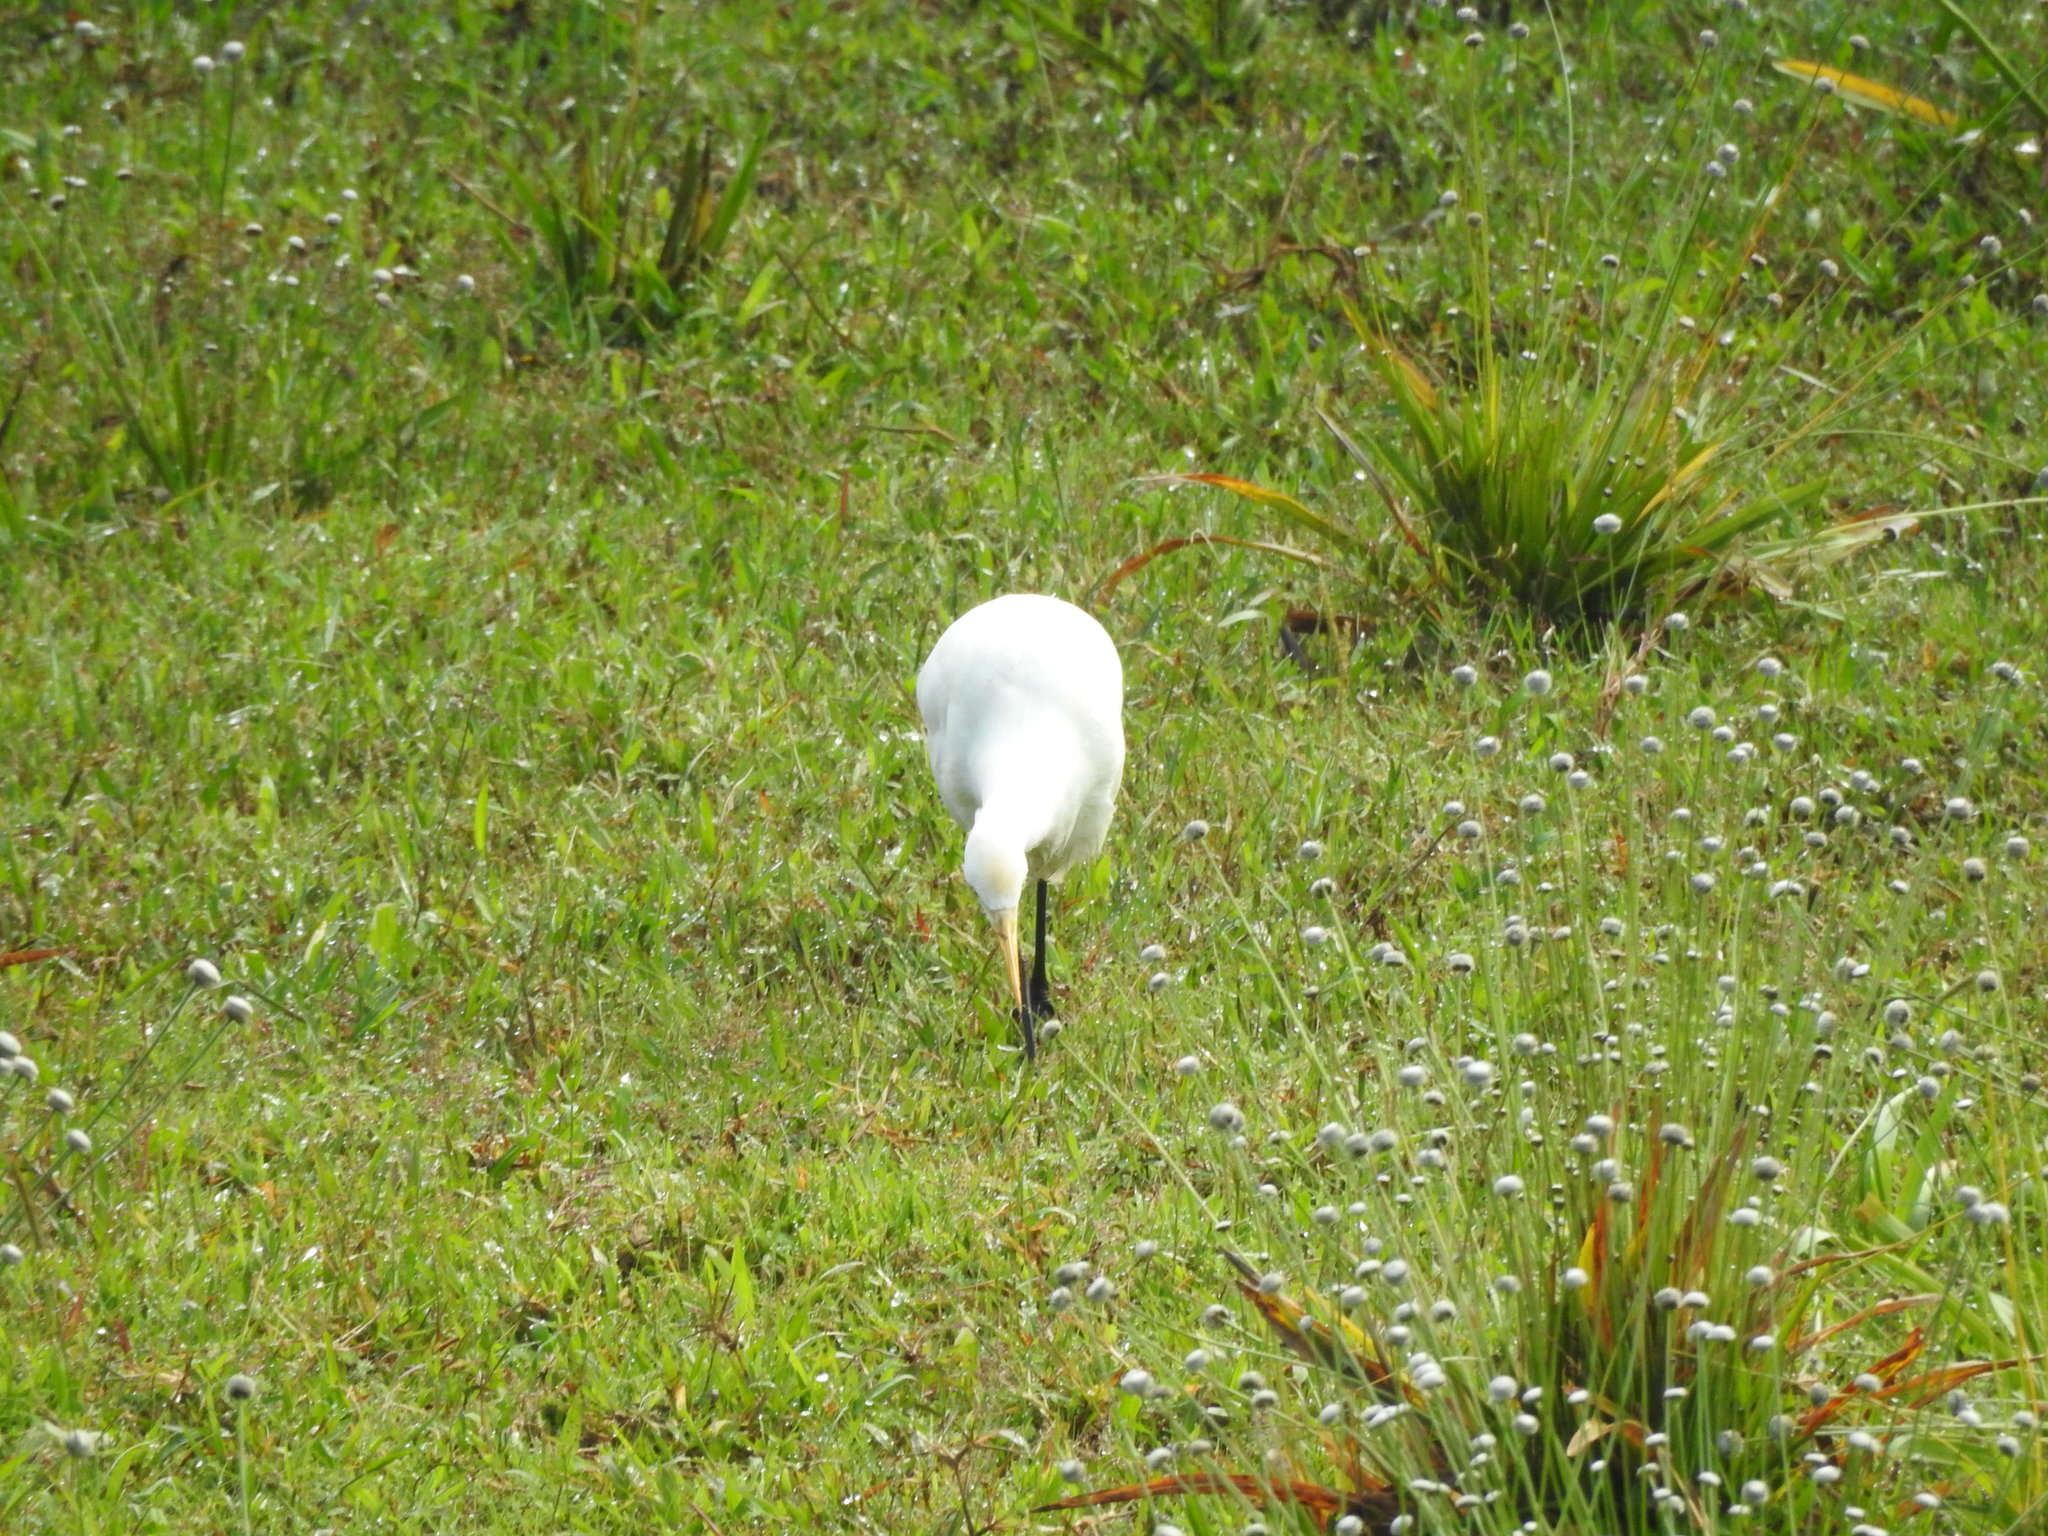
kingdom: Animalia
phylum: Chordata
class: Aves
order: Pelecaniformes
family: Ardeidae
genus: Bubulcus
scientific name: Bubulcus coromandus
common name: Eastern cattle egret
